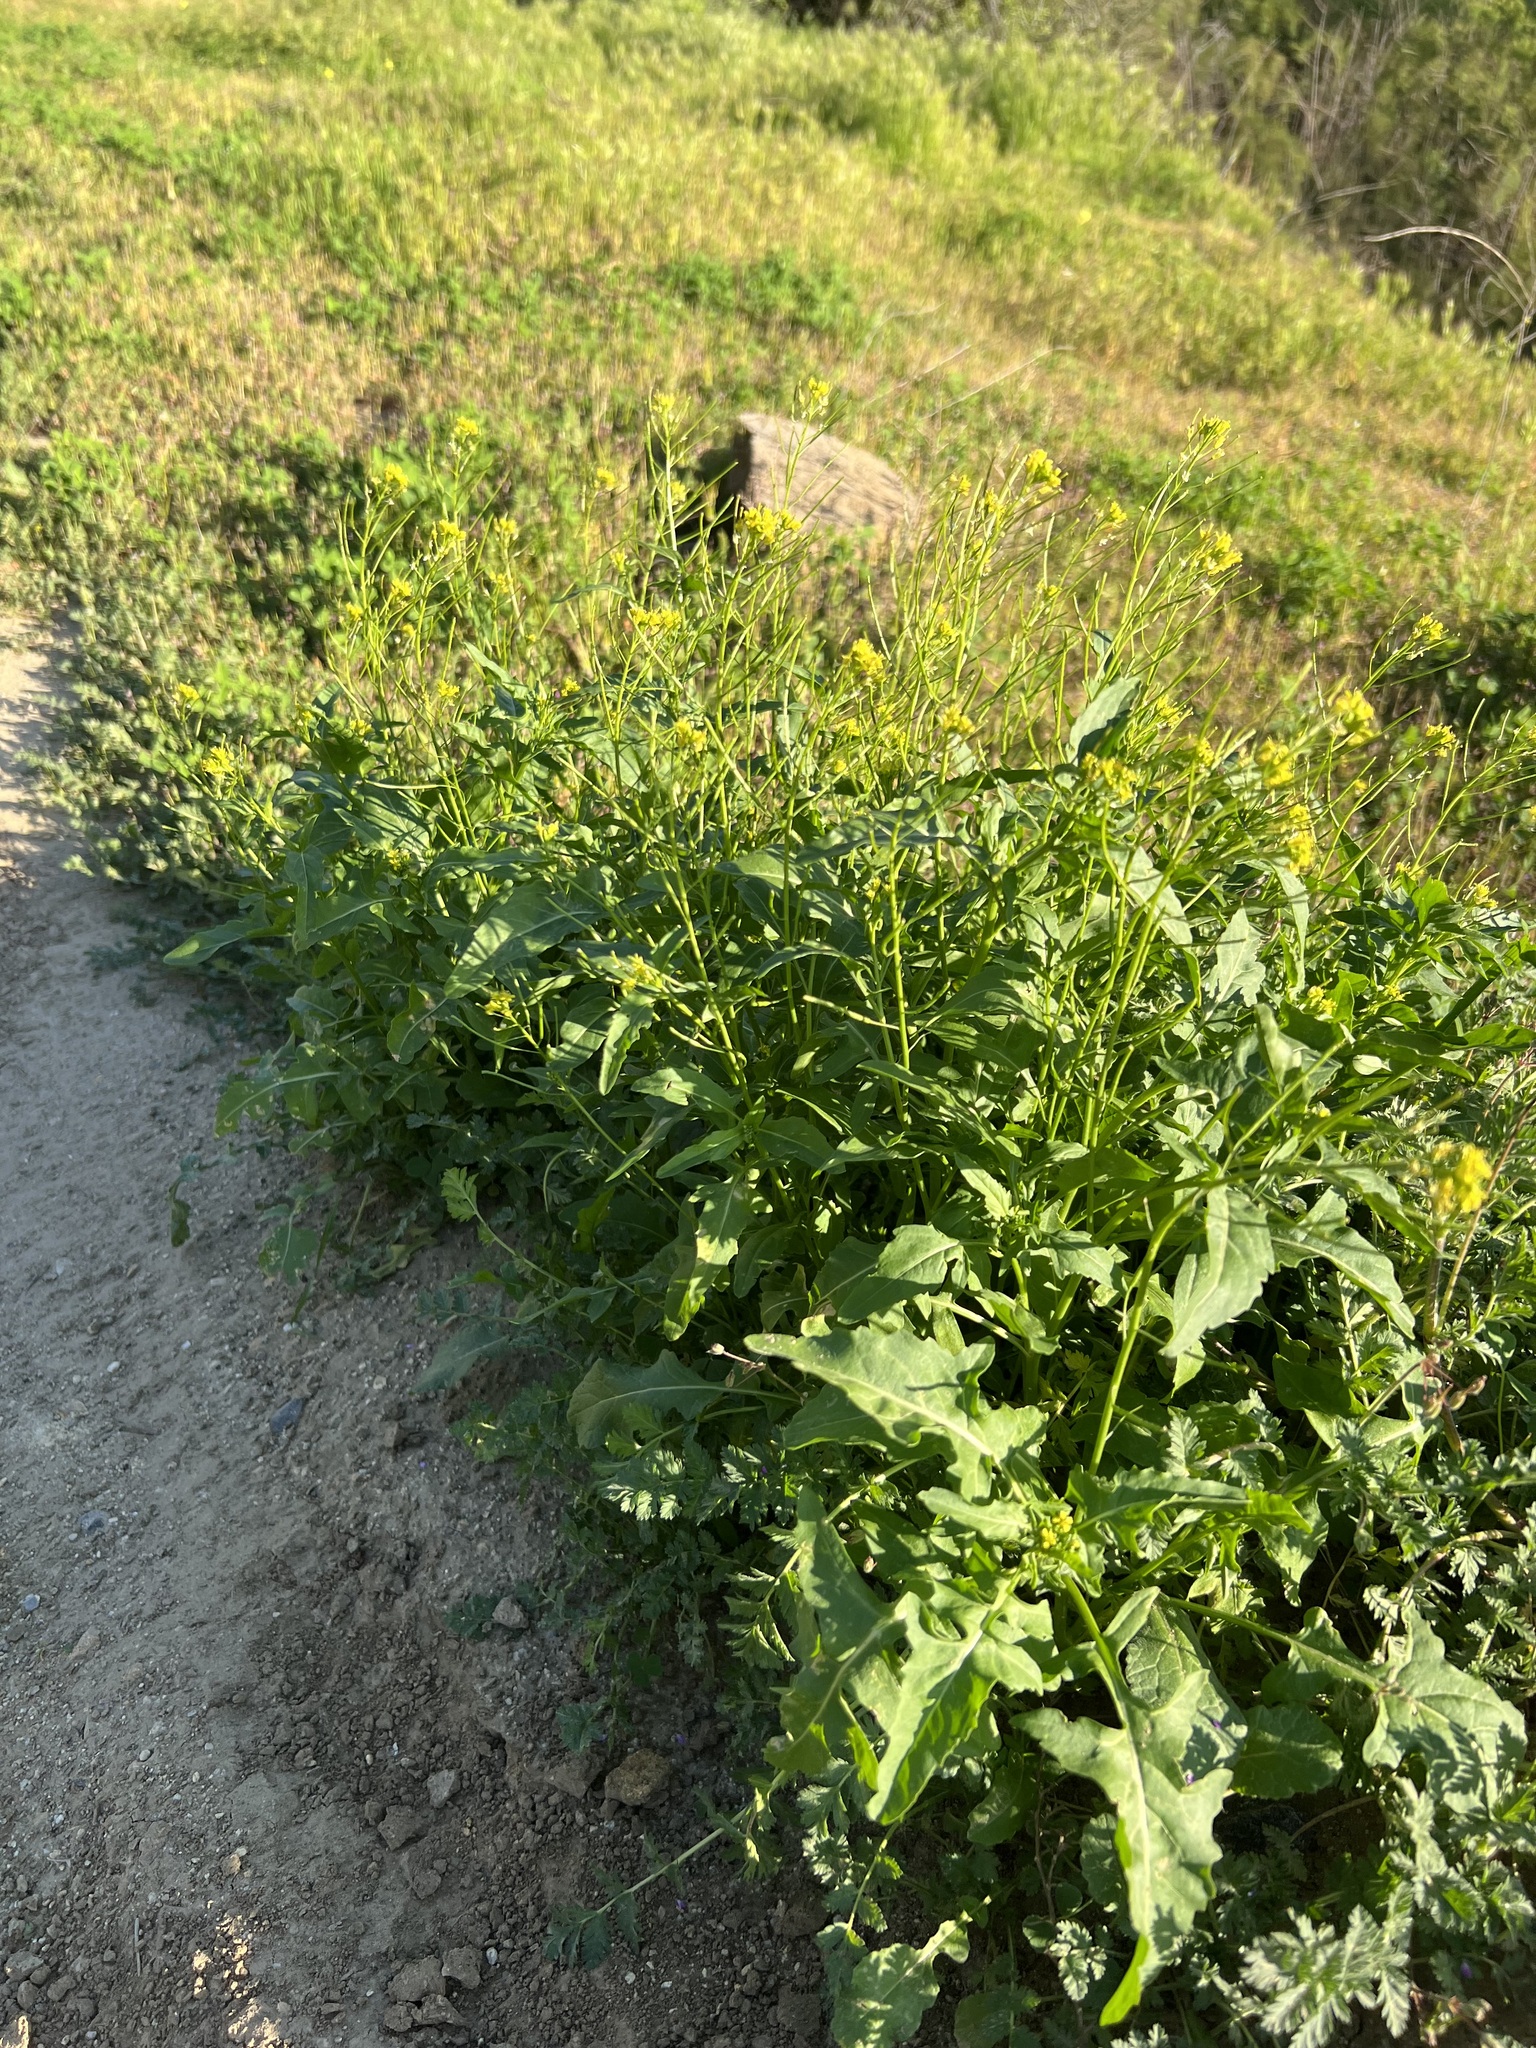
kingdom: Plantae
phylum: Tracheophyta
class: Magnoliopsida
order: Brassicales
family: Brassicaceae
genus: Sisymbrium
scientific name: Sisymbrium irio
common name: London rocket
